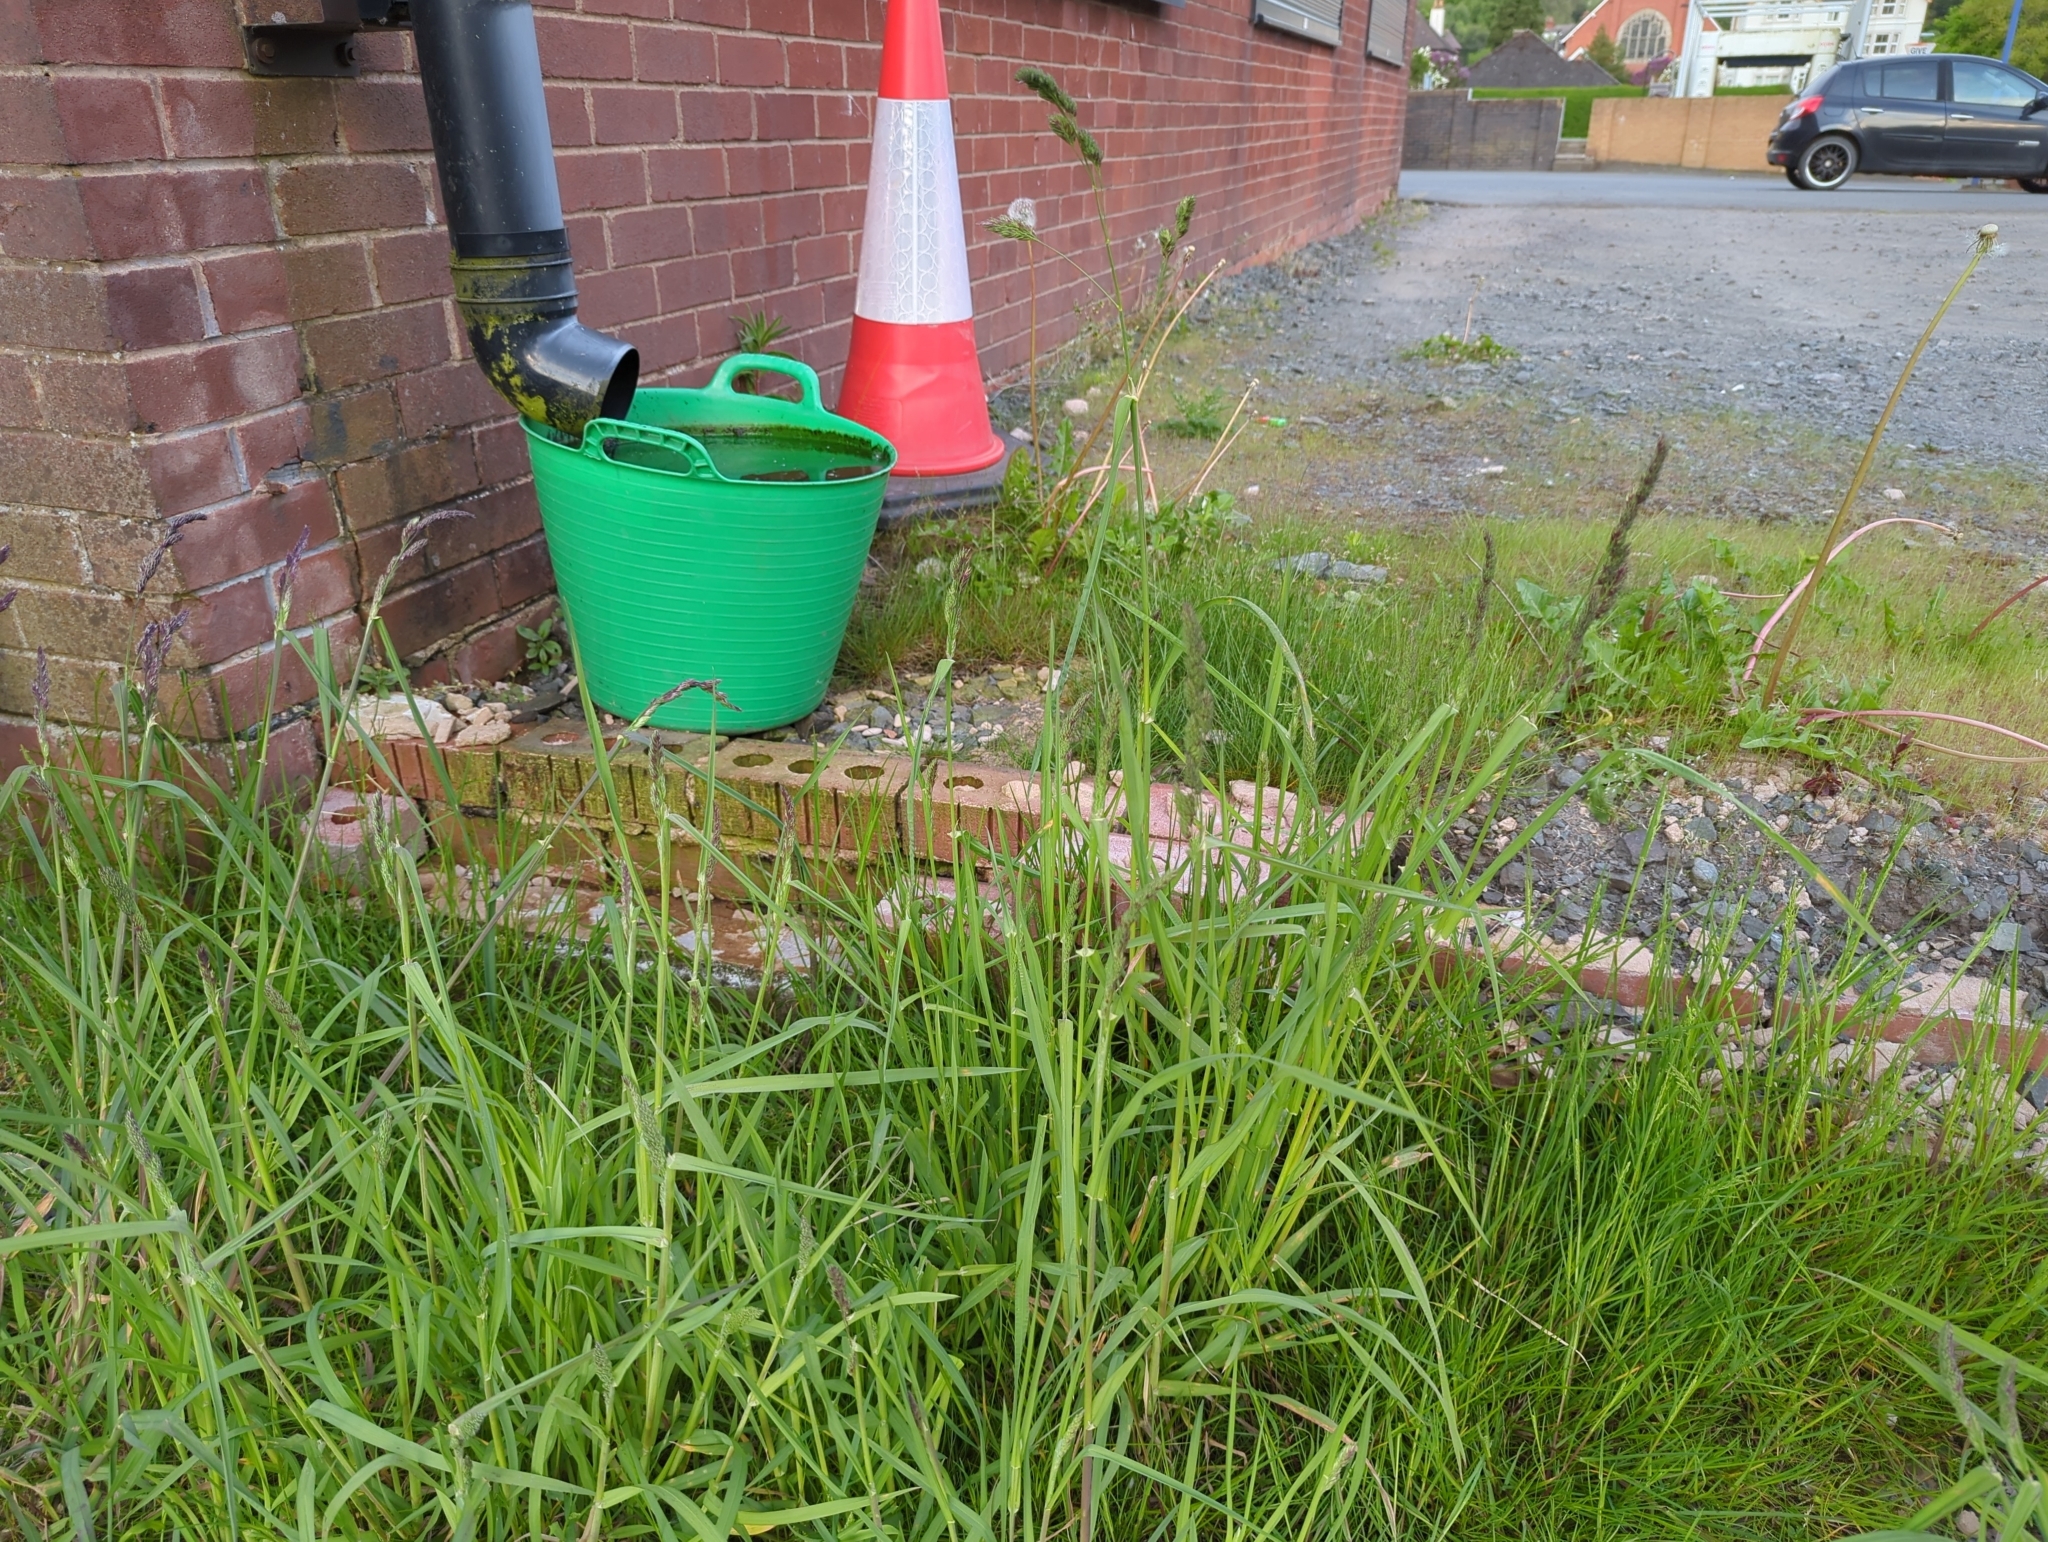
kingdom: Plantae
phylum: Tracheophyta
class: Liliopsida
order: Poales
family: Poaceae
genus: Dactylis
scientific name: Dactylis glomerata
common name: Orchardgrass
